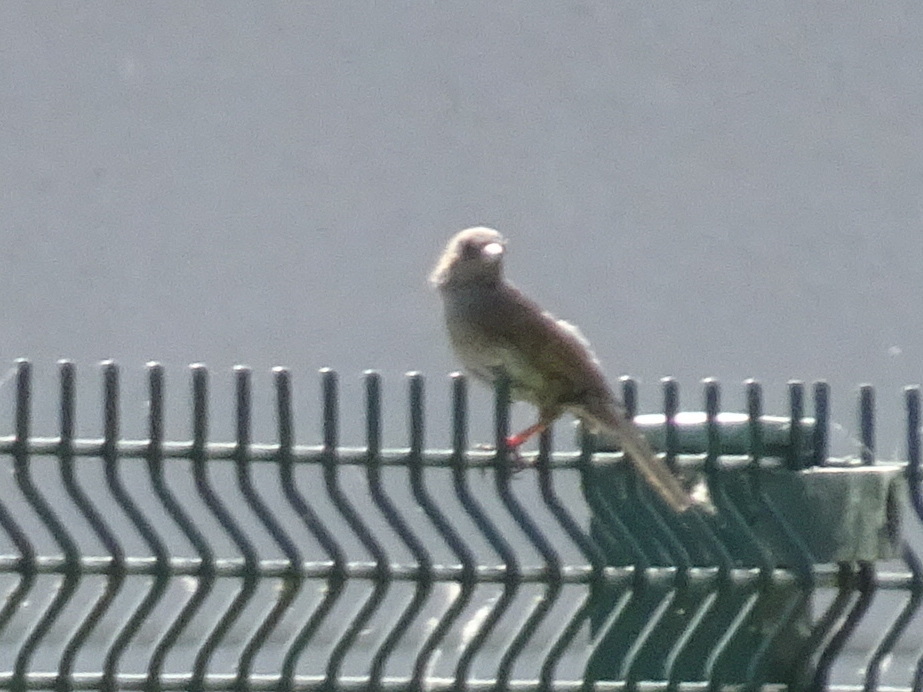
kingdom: Animalia
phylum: Chordata
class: Aves
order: Passeriformes
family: Prunellidae
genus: Prunella
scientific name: Prunella modularis
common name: Dunnock
